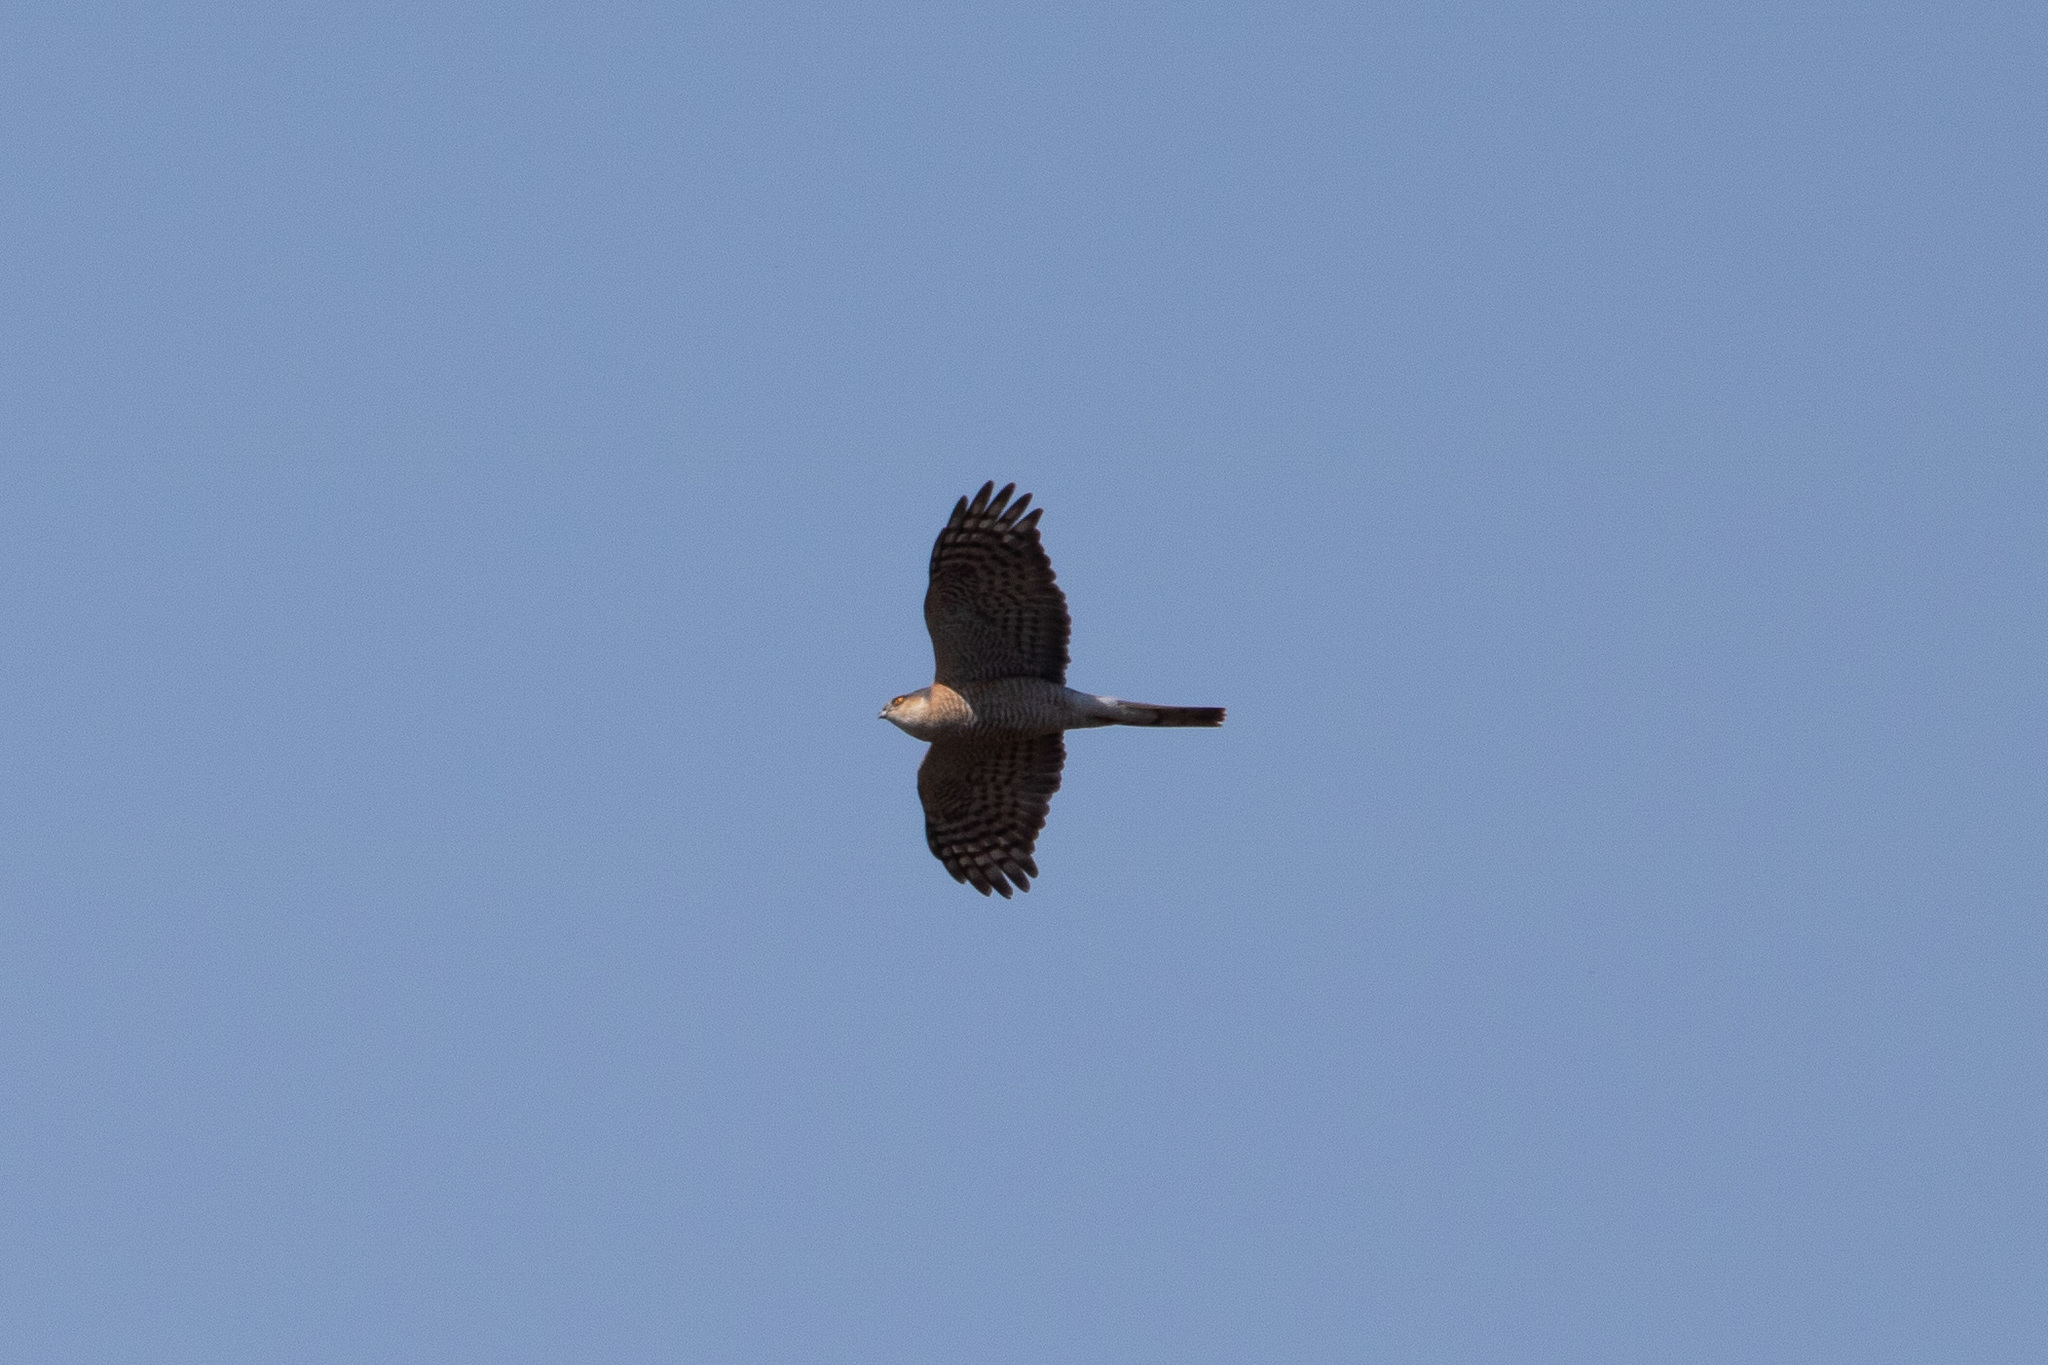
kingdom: Animalia
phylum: Chordata
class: Aves
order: Accipitriformes
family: Accipitridae
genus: Accipiter
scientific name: Accipiter nisus
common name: Eurasian sparrowhawk
